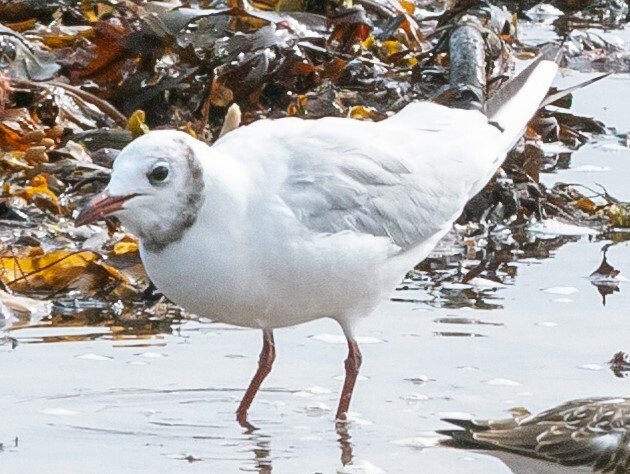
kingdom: Animalia
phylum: Chordata
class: Aves
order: Charadriiformes
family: Laridae
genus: Chroicocephalus
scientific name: Chroicocephalus ridibundus
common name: Black-headed gull
